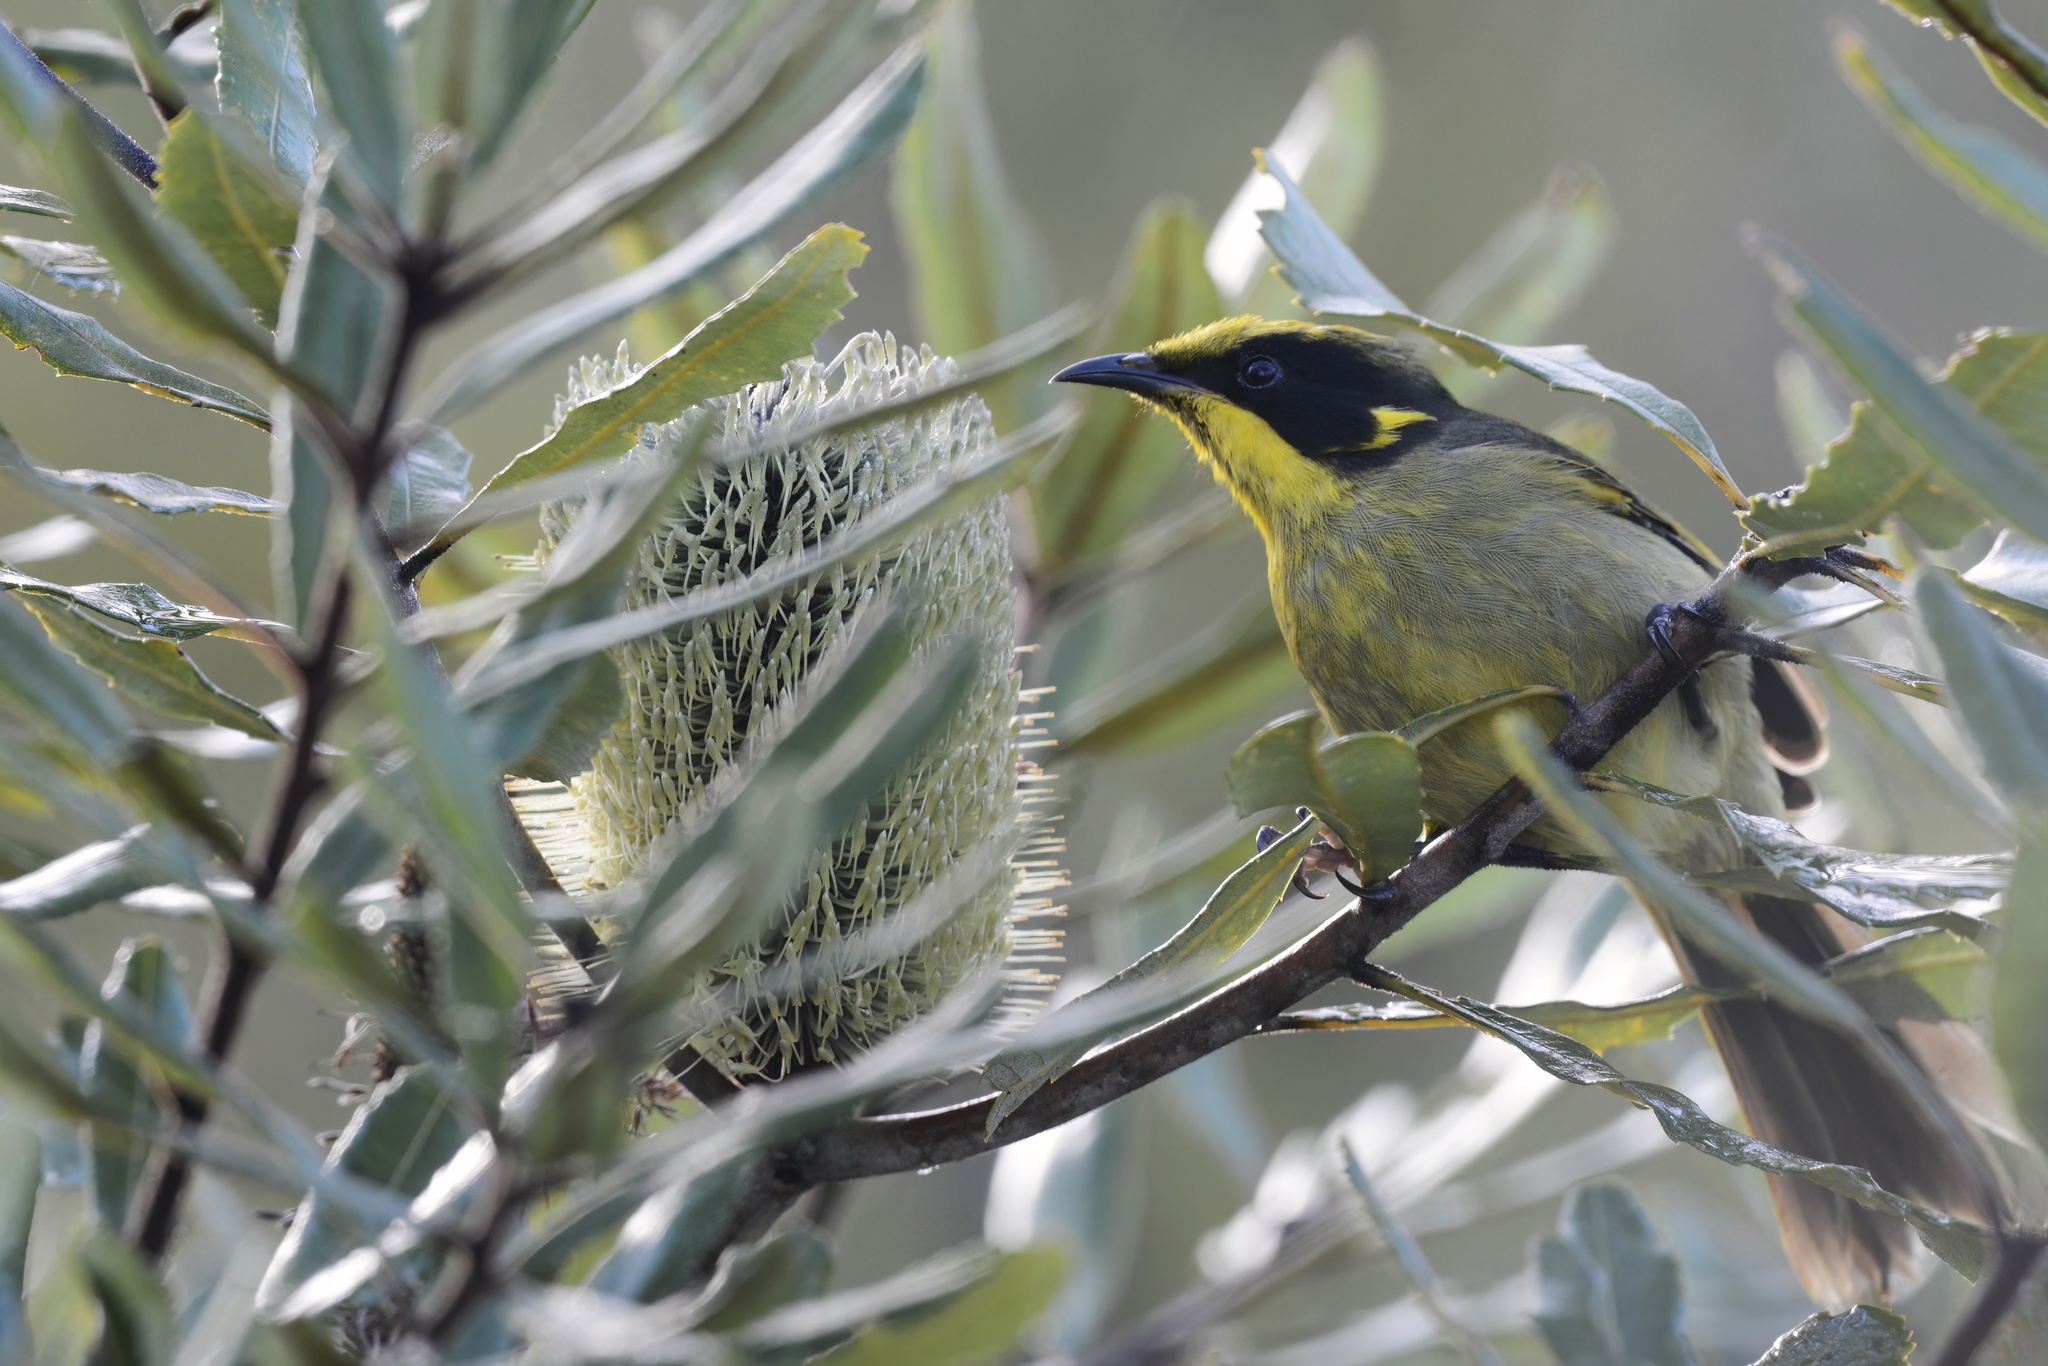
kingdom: Animalia
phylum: Chordata
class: Aves
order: Passeriformes
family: Meliphagidae
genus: Lichenostomus
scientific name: Lichenostomus melanops
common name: Yellow-tufted honeyeater
